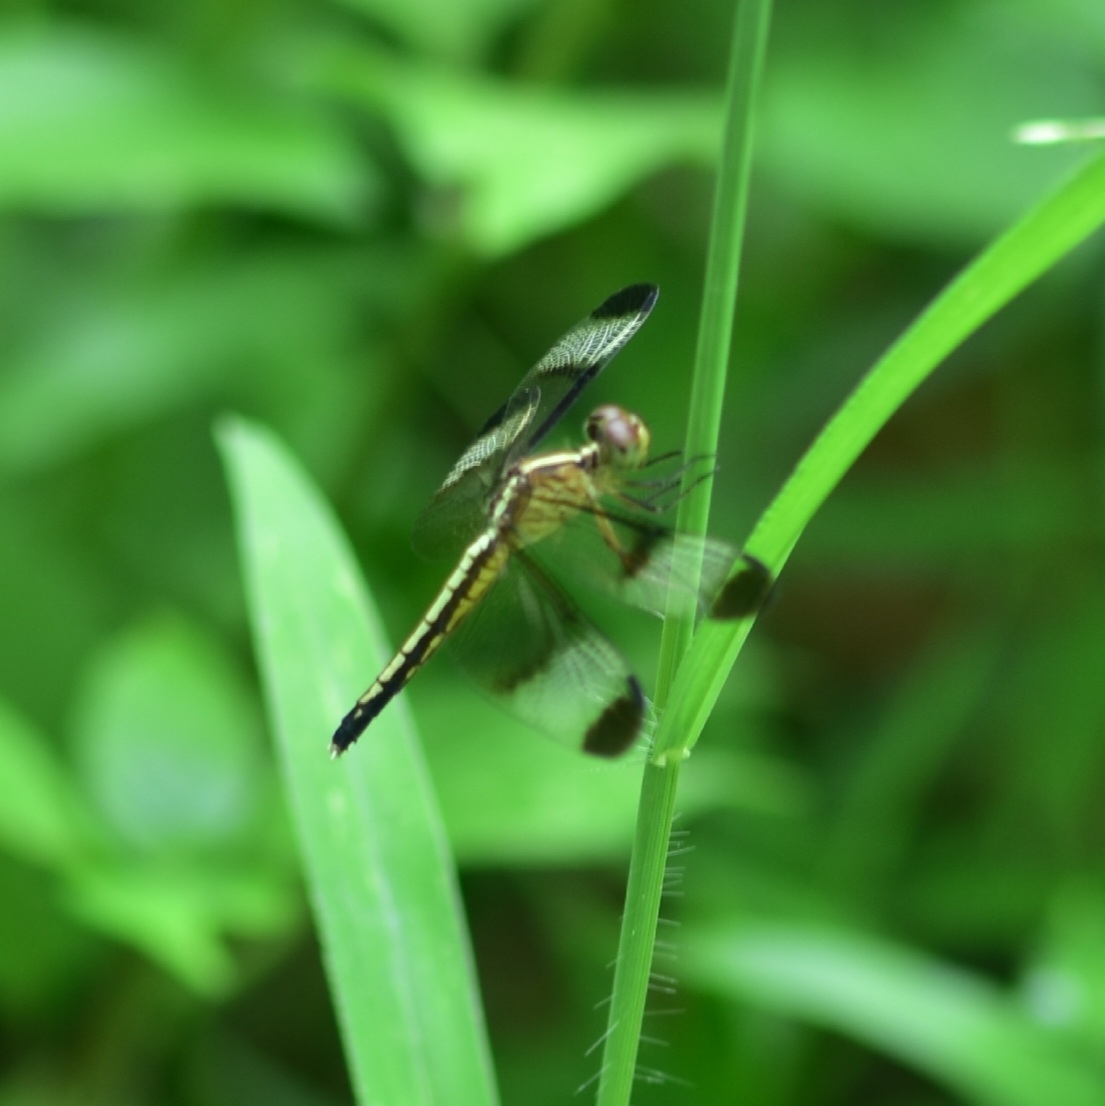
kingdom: Animalia
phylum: Arthropoda
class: Insecta
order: Odonata
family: Libellulidae
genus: Neurothemis
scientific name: Neurothemis tullia
